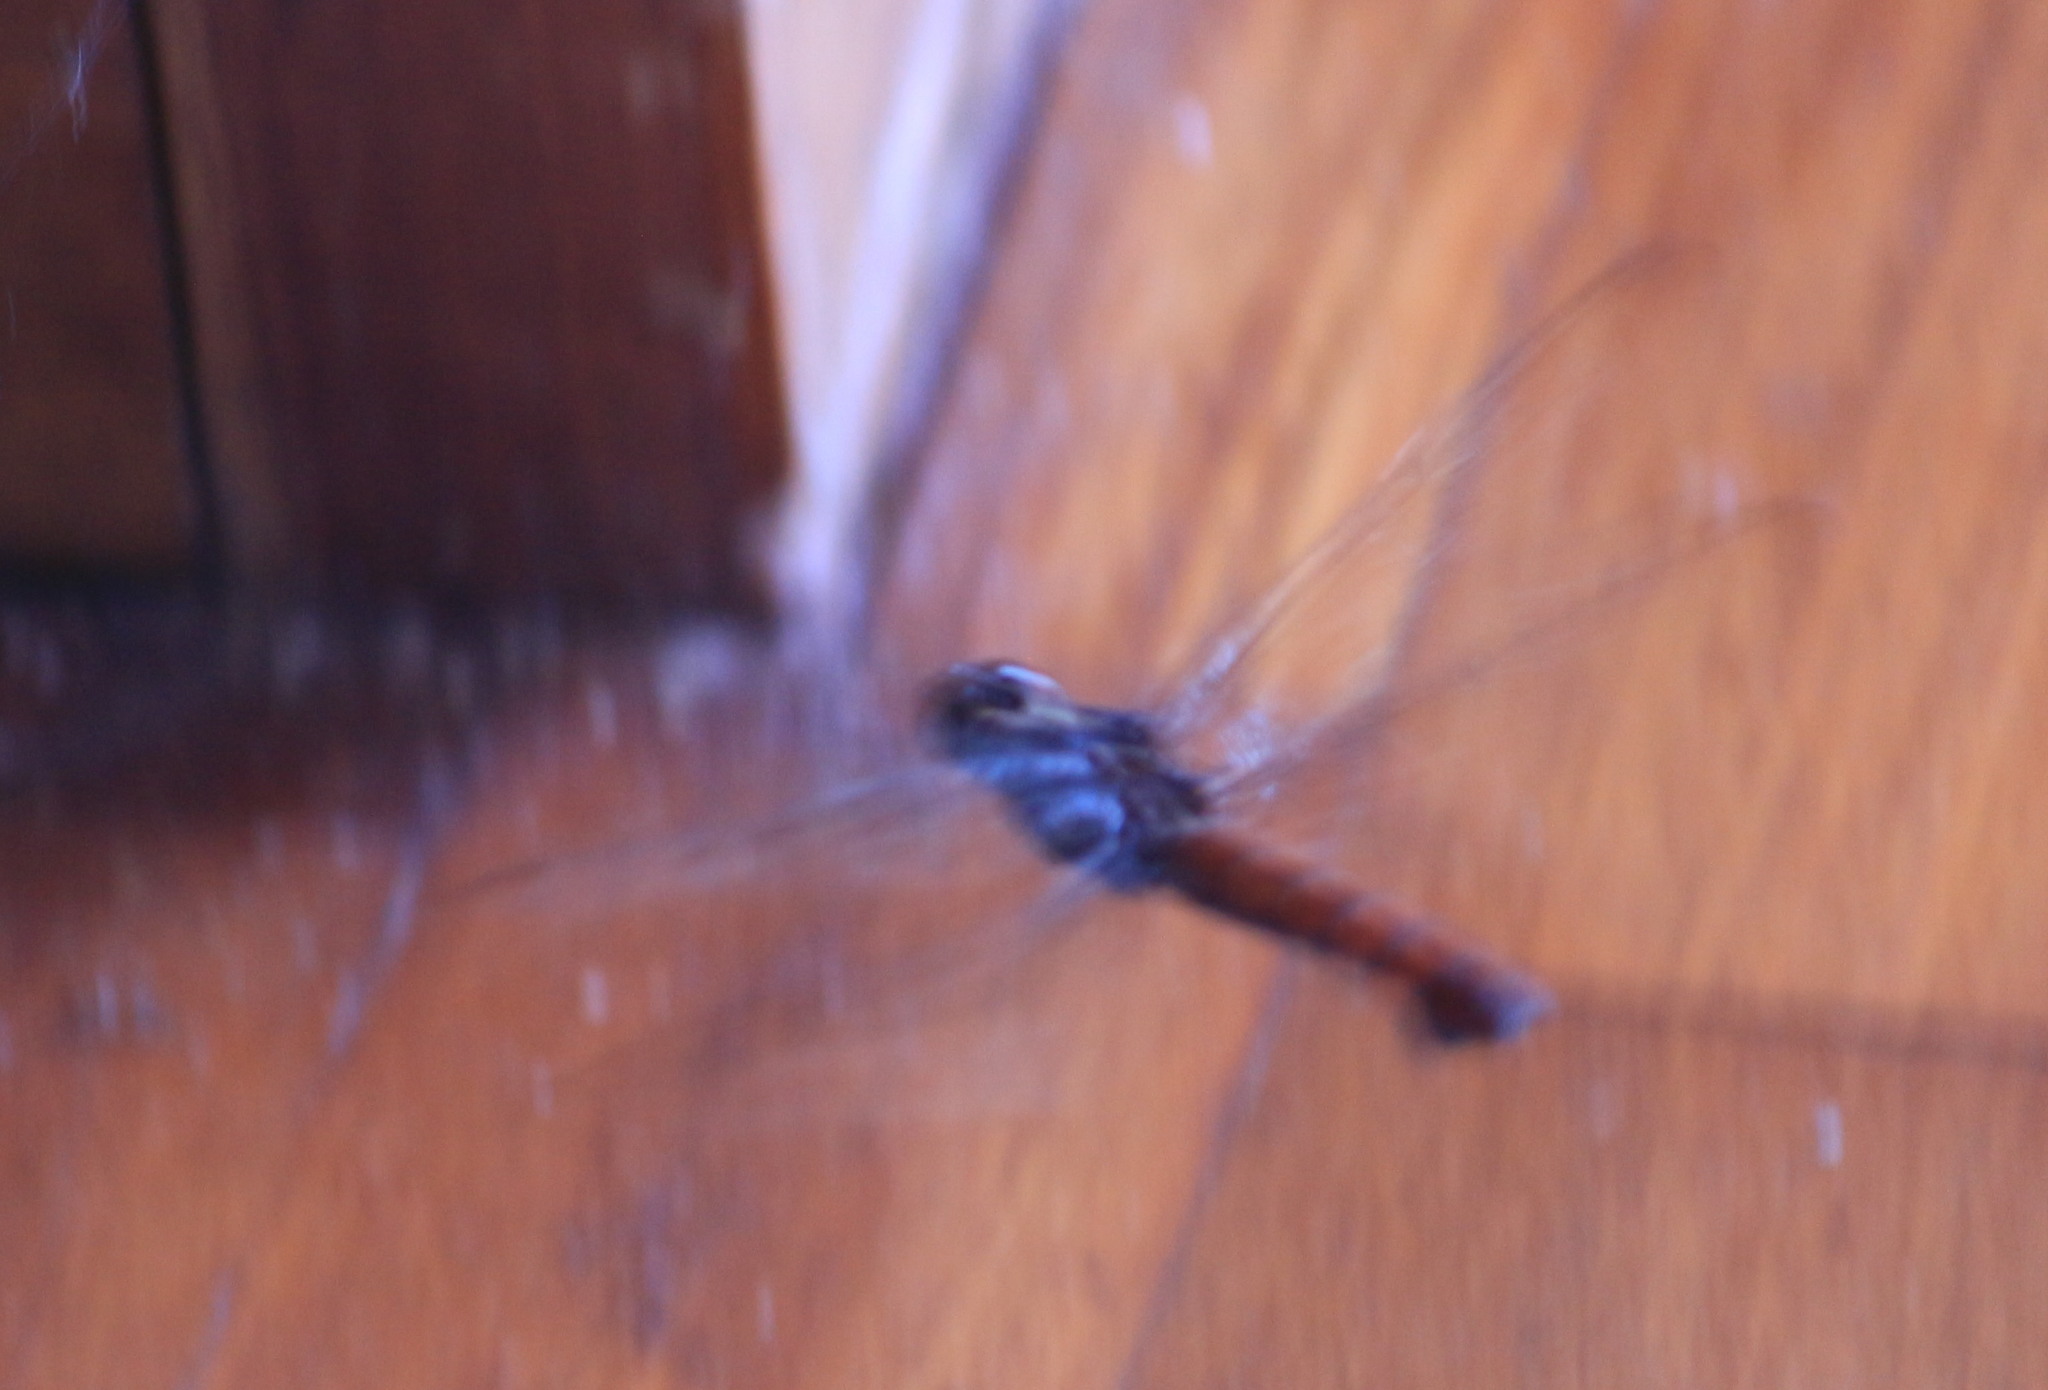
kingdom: Animalia
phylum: Arthropoda
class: Insecta
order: Odonata
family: Libellulidae
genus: Libellula
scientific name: Libellula herculea
